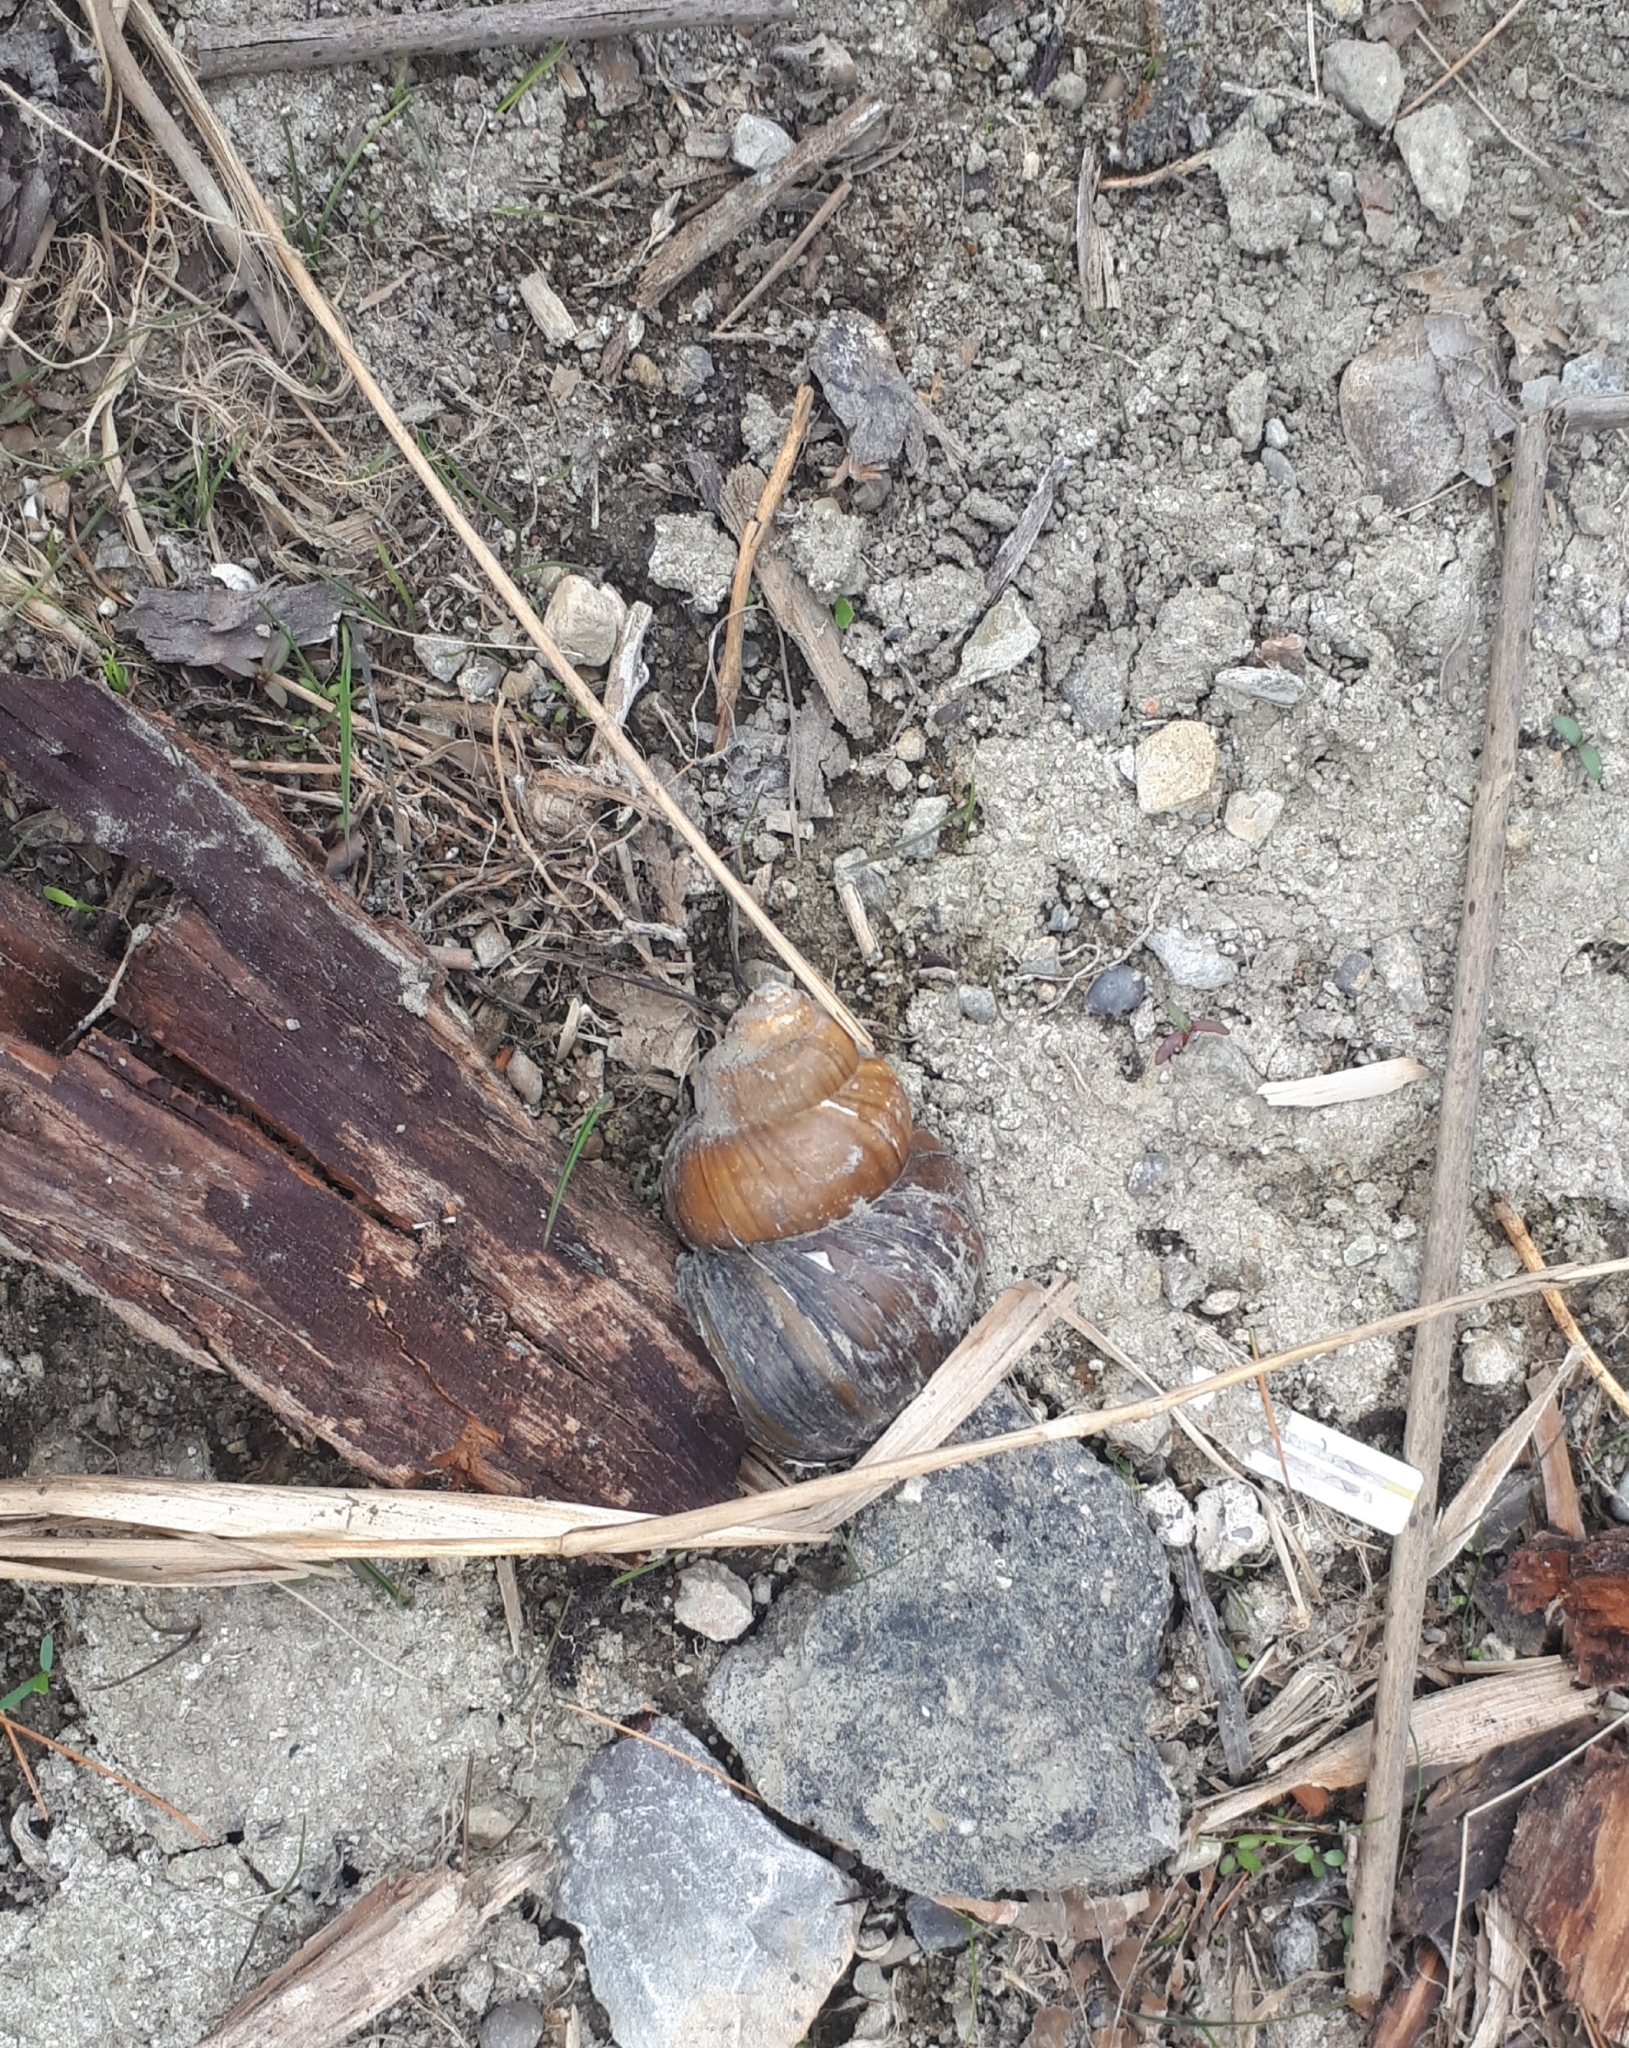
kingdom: Animalia
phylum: Mollusca
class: Gastropoda
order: Architaenioglossa
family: Viviparidae
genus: Cipangopaludina
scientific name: Cipangopaludina chinensis
